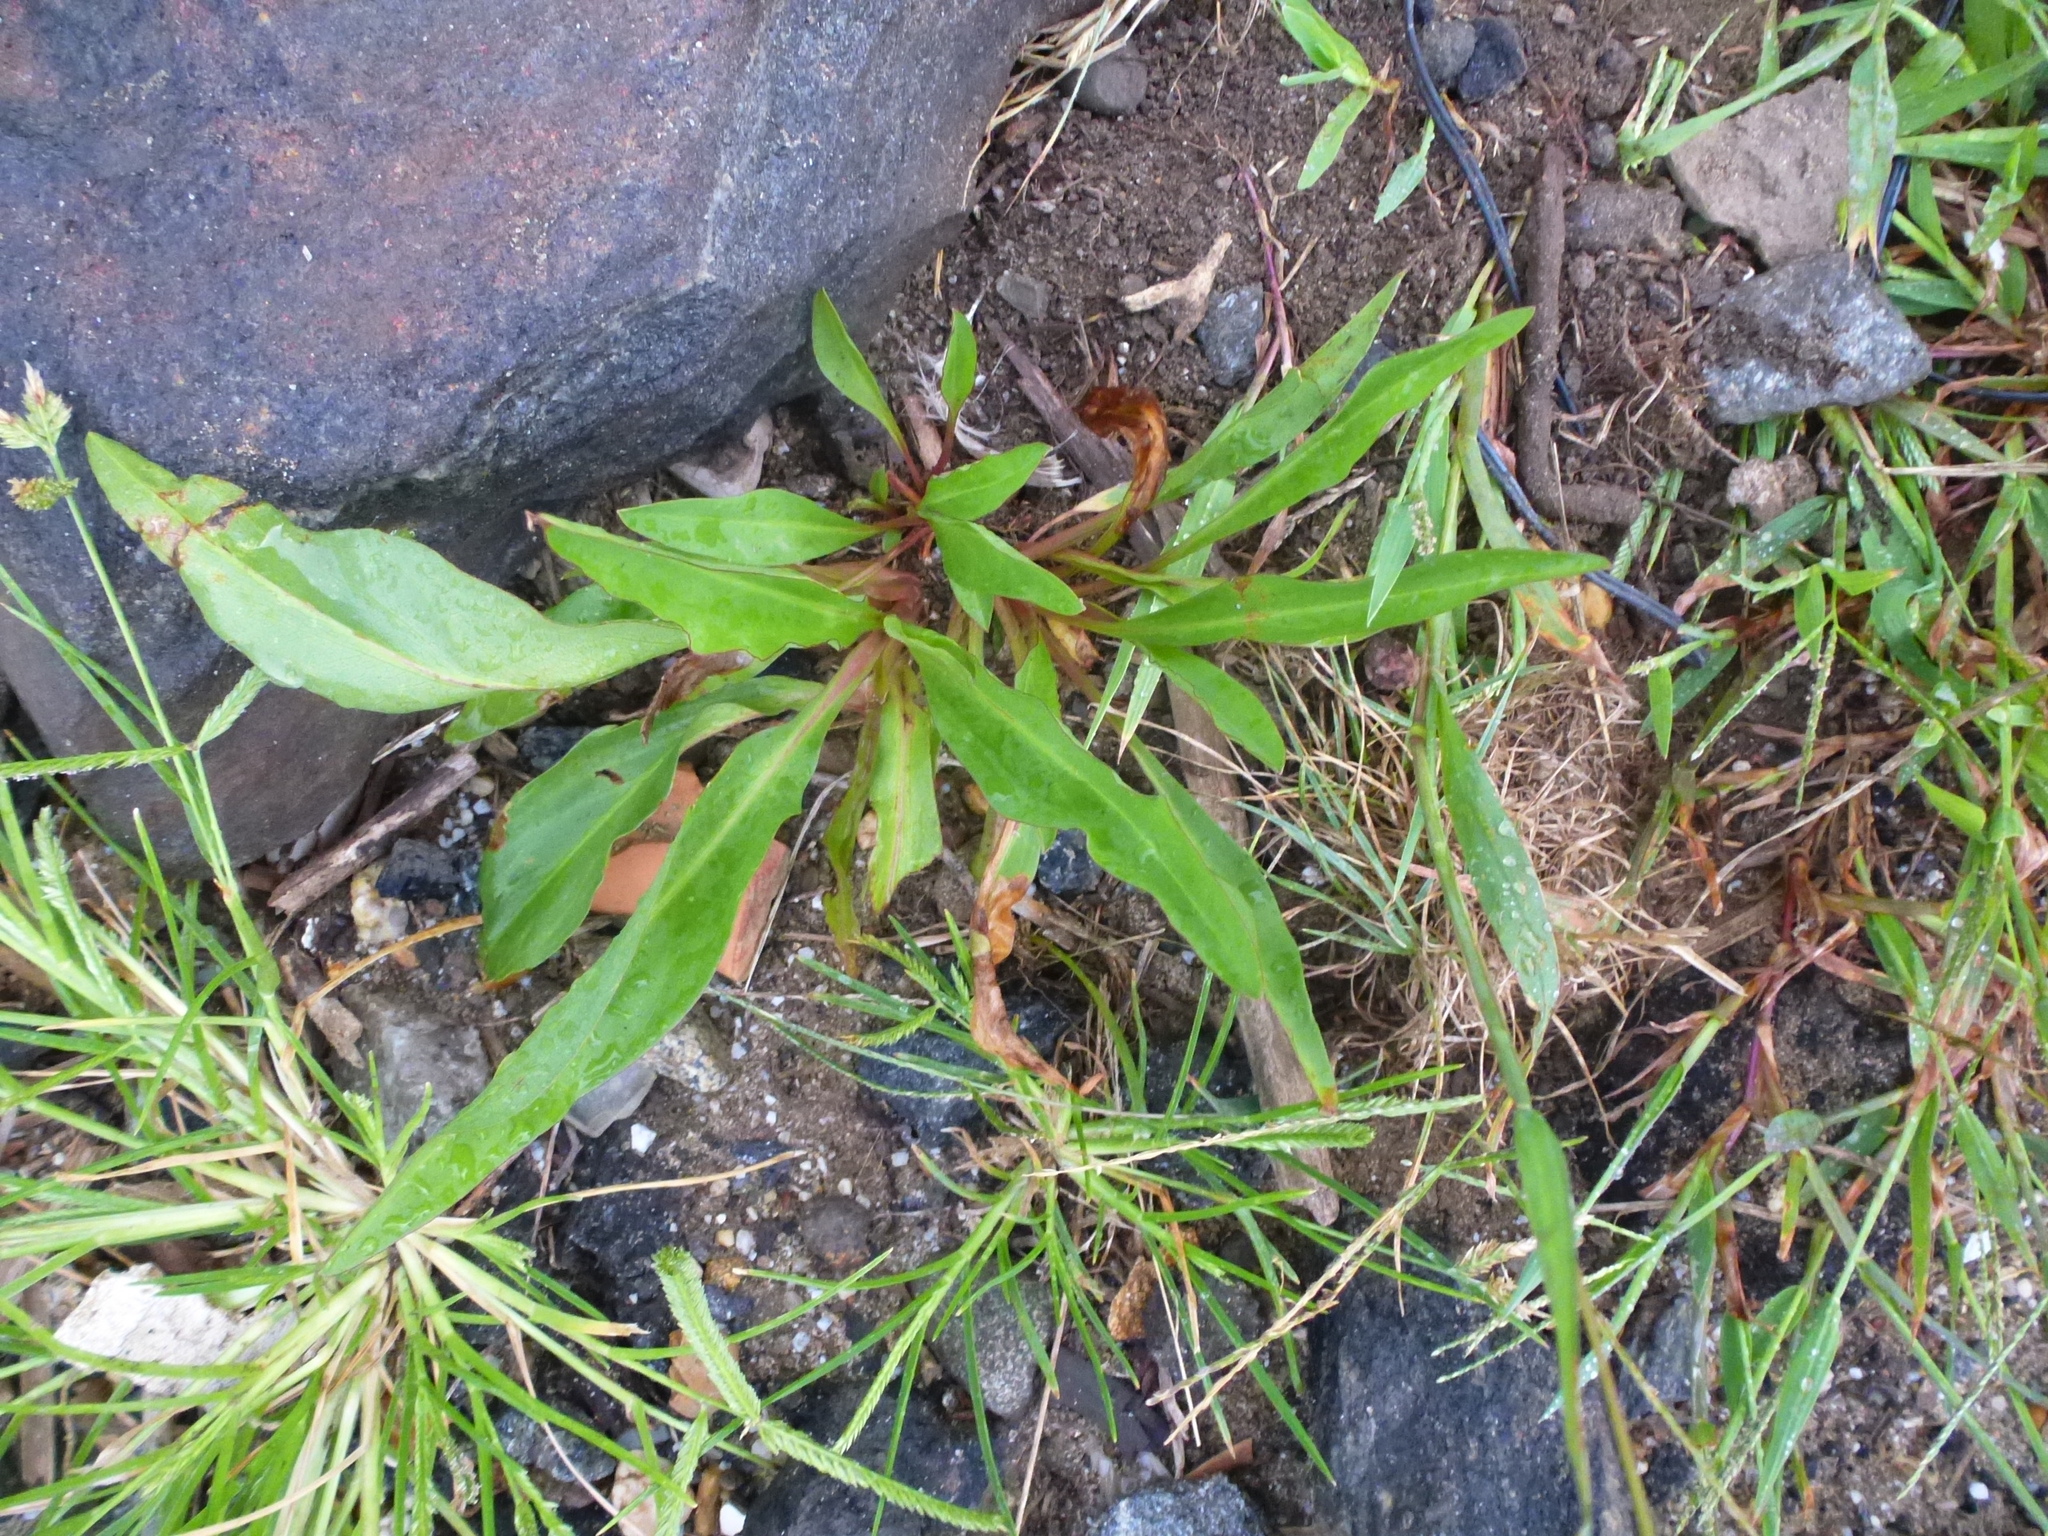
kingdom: Plantae
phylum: Tracheophyta
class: Magnoliopsida
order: Asterales
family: Asteraceae
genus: Solidago
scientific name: Solidago sempervirens
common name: Salt-marsh goldenrod
